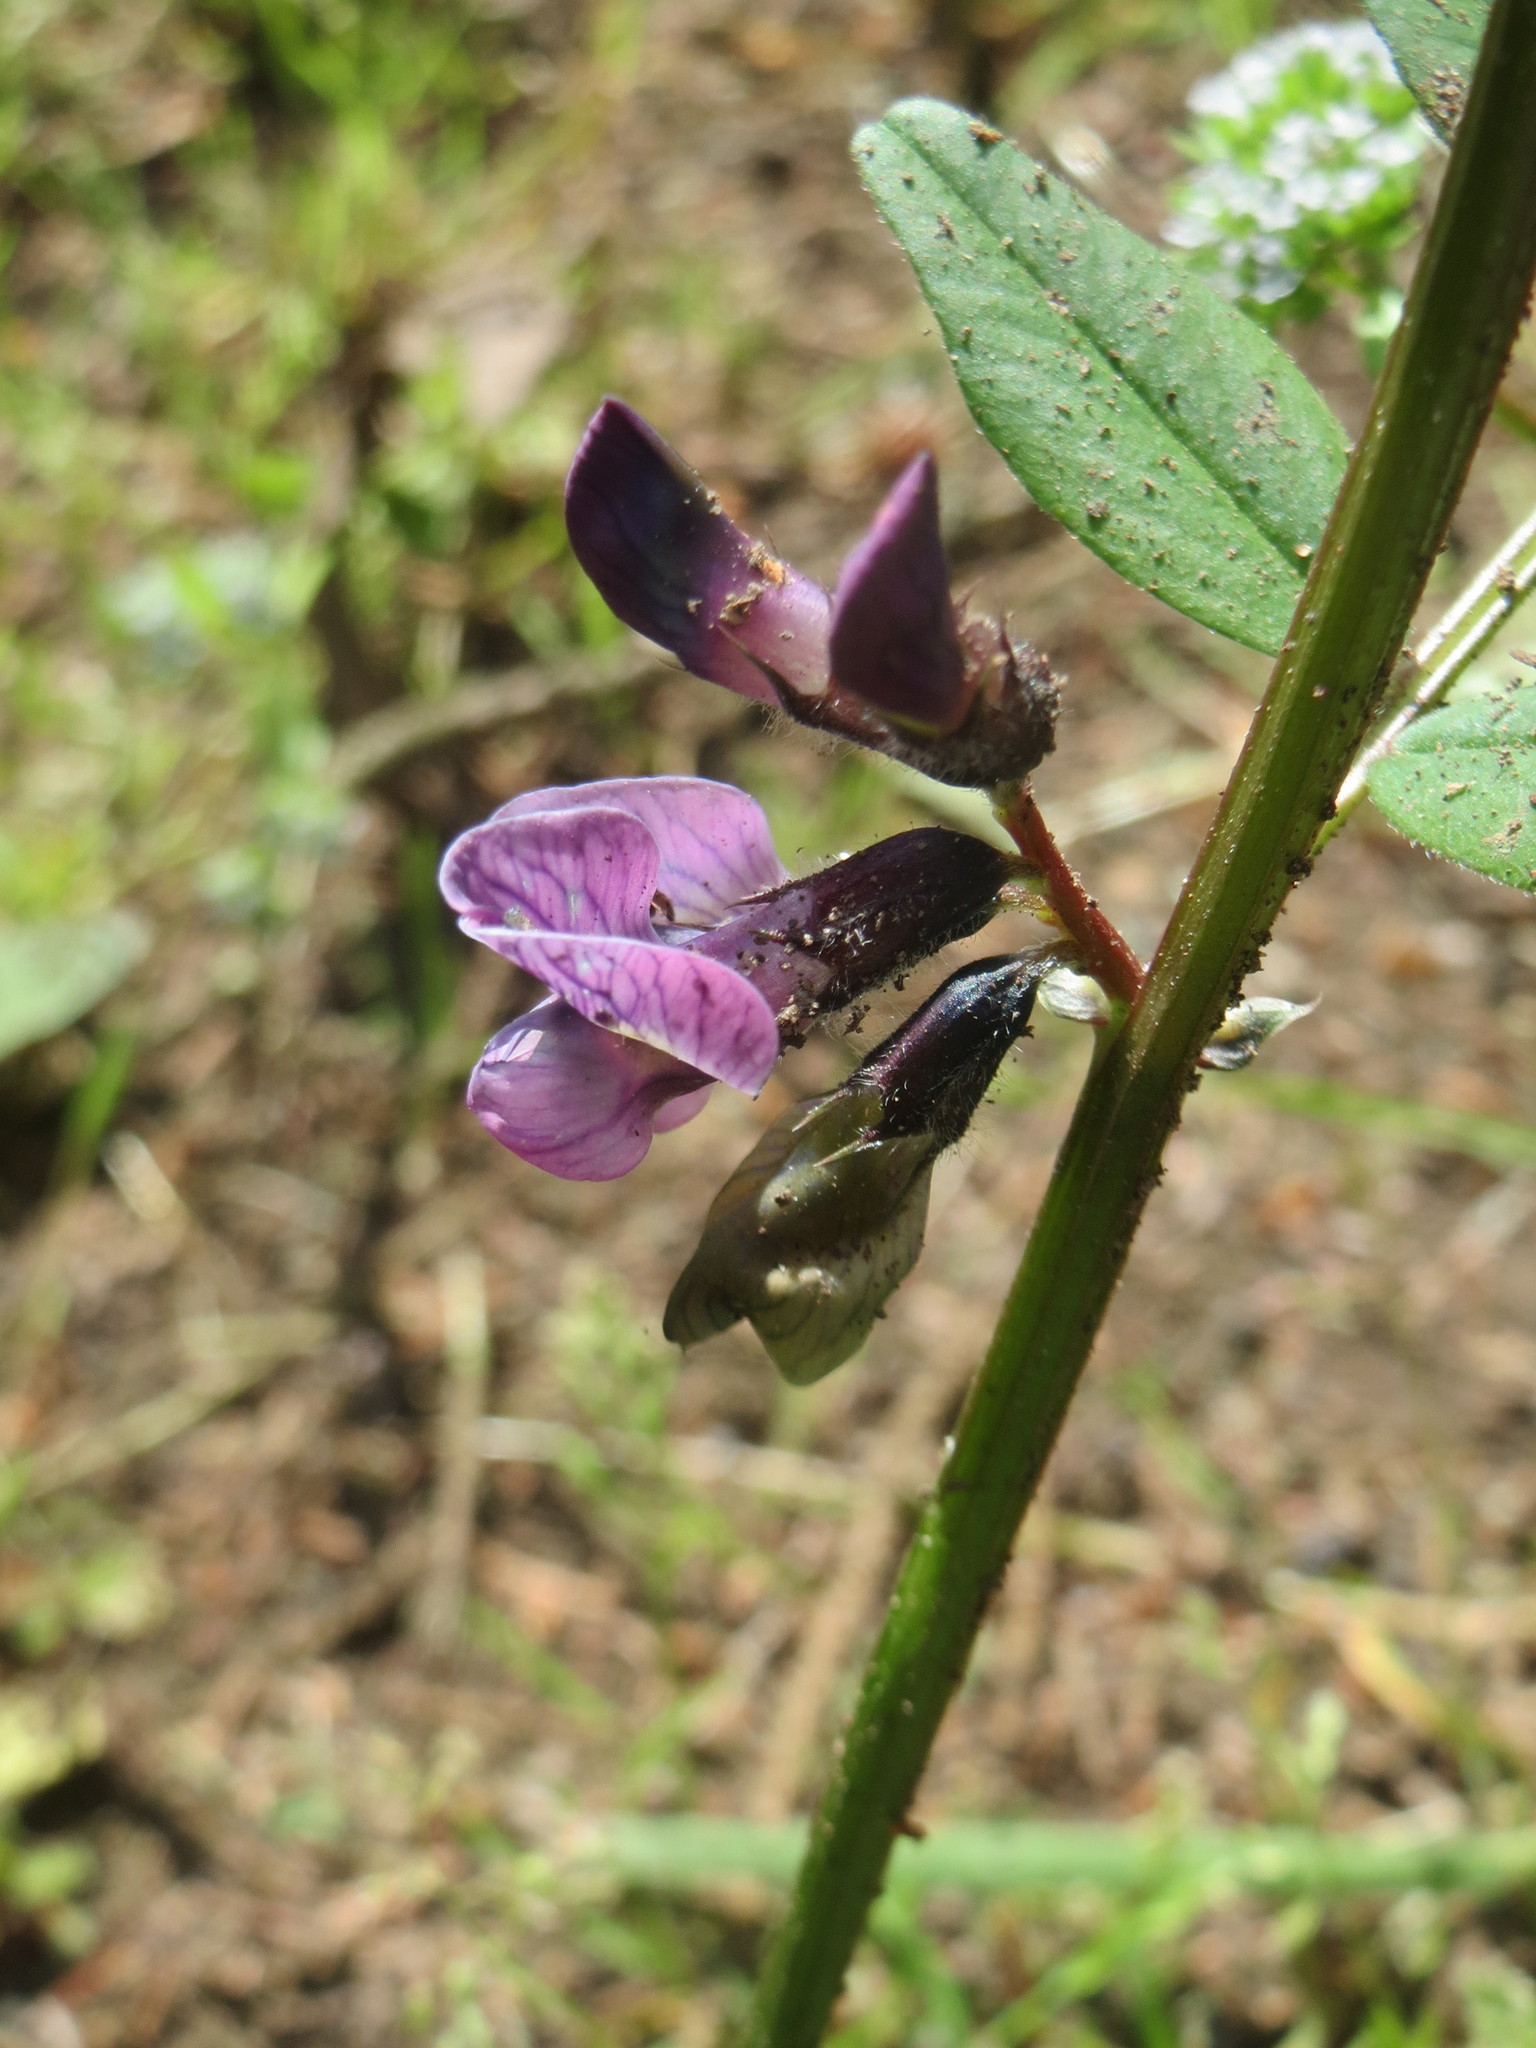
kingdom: Plantae
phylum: Tracheophyta
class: Magnoliopsida
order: Fabales
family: Fabaceae
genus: Vicia
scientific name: Vicia sepium
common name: Bush vetch
